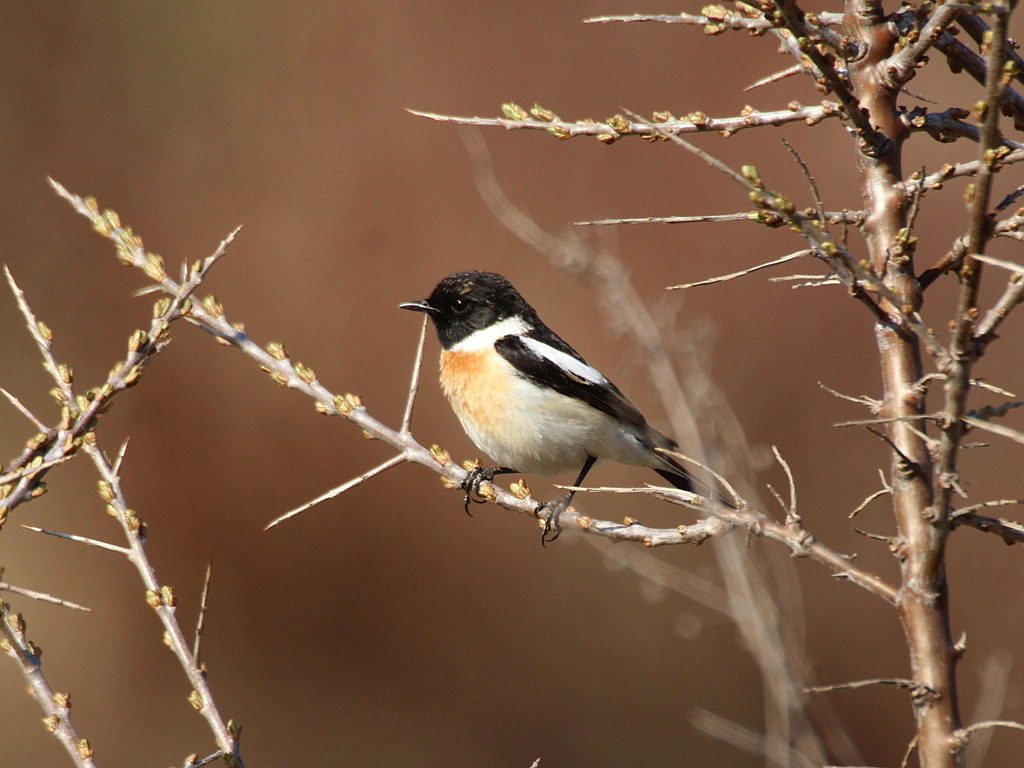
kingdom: Animalia
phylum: Chordata
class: Aves
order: Passeriformes
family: Muscicapidae
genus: Saxicola
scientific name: Saxicola maurus
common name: Siberian stonechat
